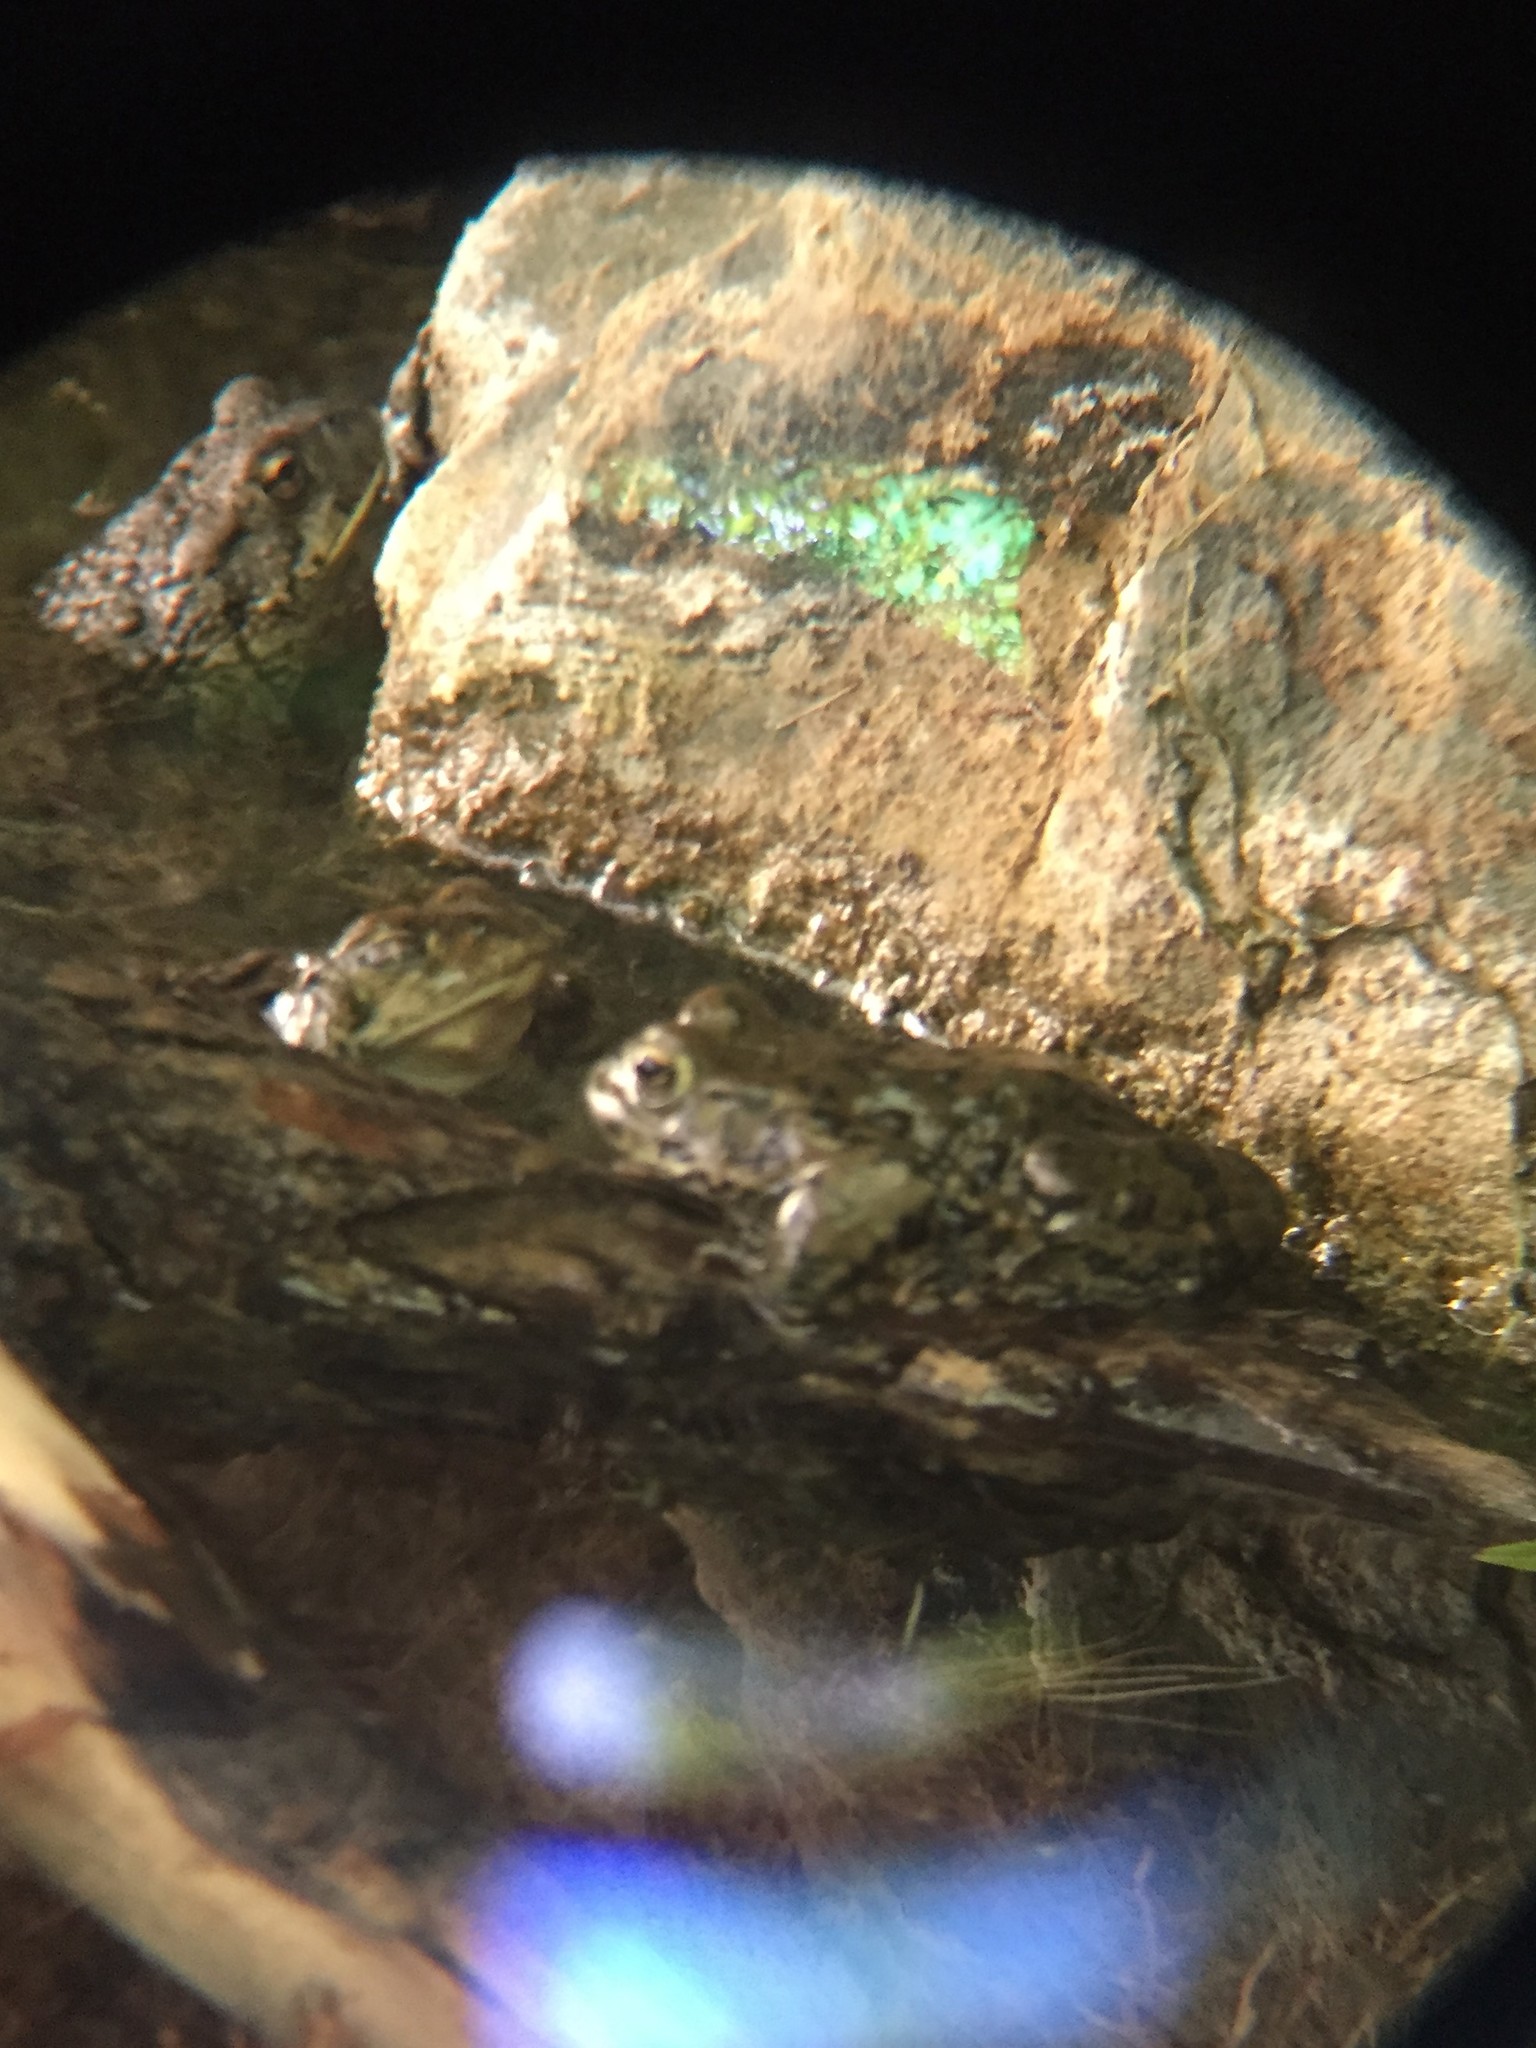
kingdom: Animalia
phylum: Chordata
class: Amphibia
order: Anura
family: Bufonidae
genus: Anaxyrus
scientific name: Anaxyrus boreas
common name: Western toad
